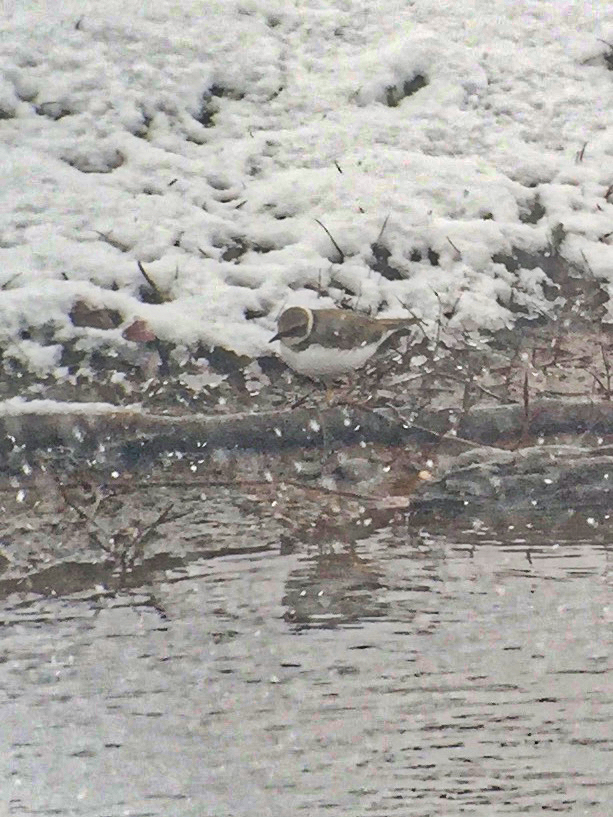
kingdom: Animalia
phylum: Chordata
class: Aves
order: Charadriiformes
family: Charadriidae
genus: Charadrius
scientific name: Charadrius dubius
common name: Little ringed plover
